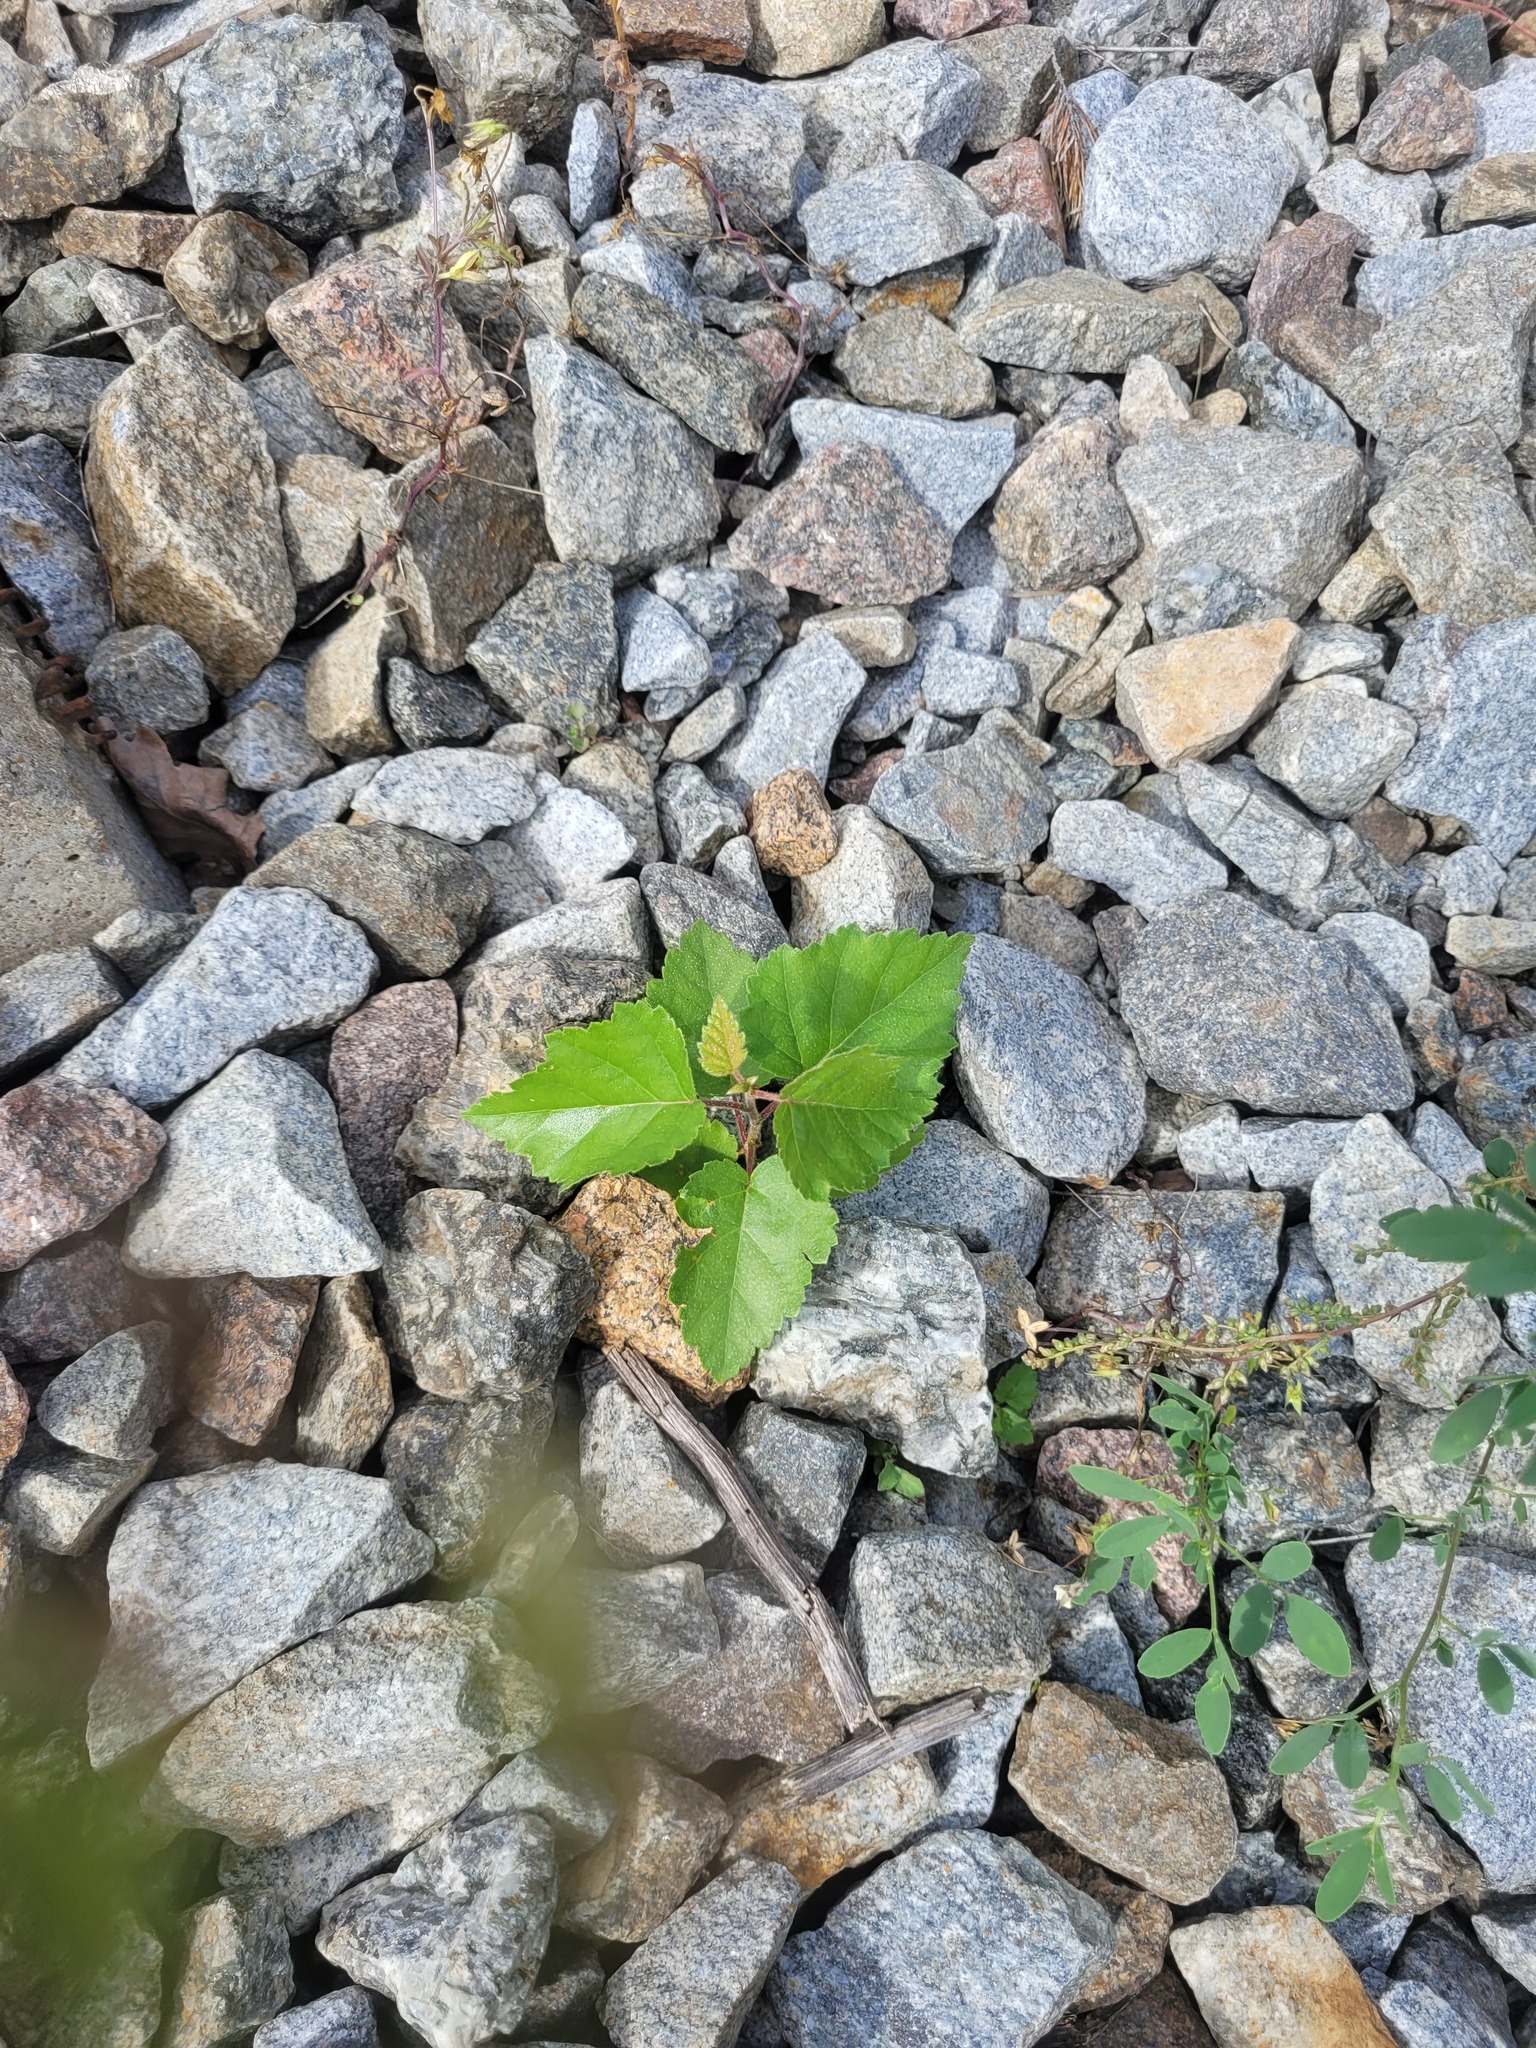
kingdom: Plantae
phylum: Tracheophyta
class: Magnoliopsida
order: Fagales
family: Betulaceae
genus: Betula
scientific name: Betula pubescens
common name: Downy birch
